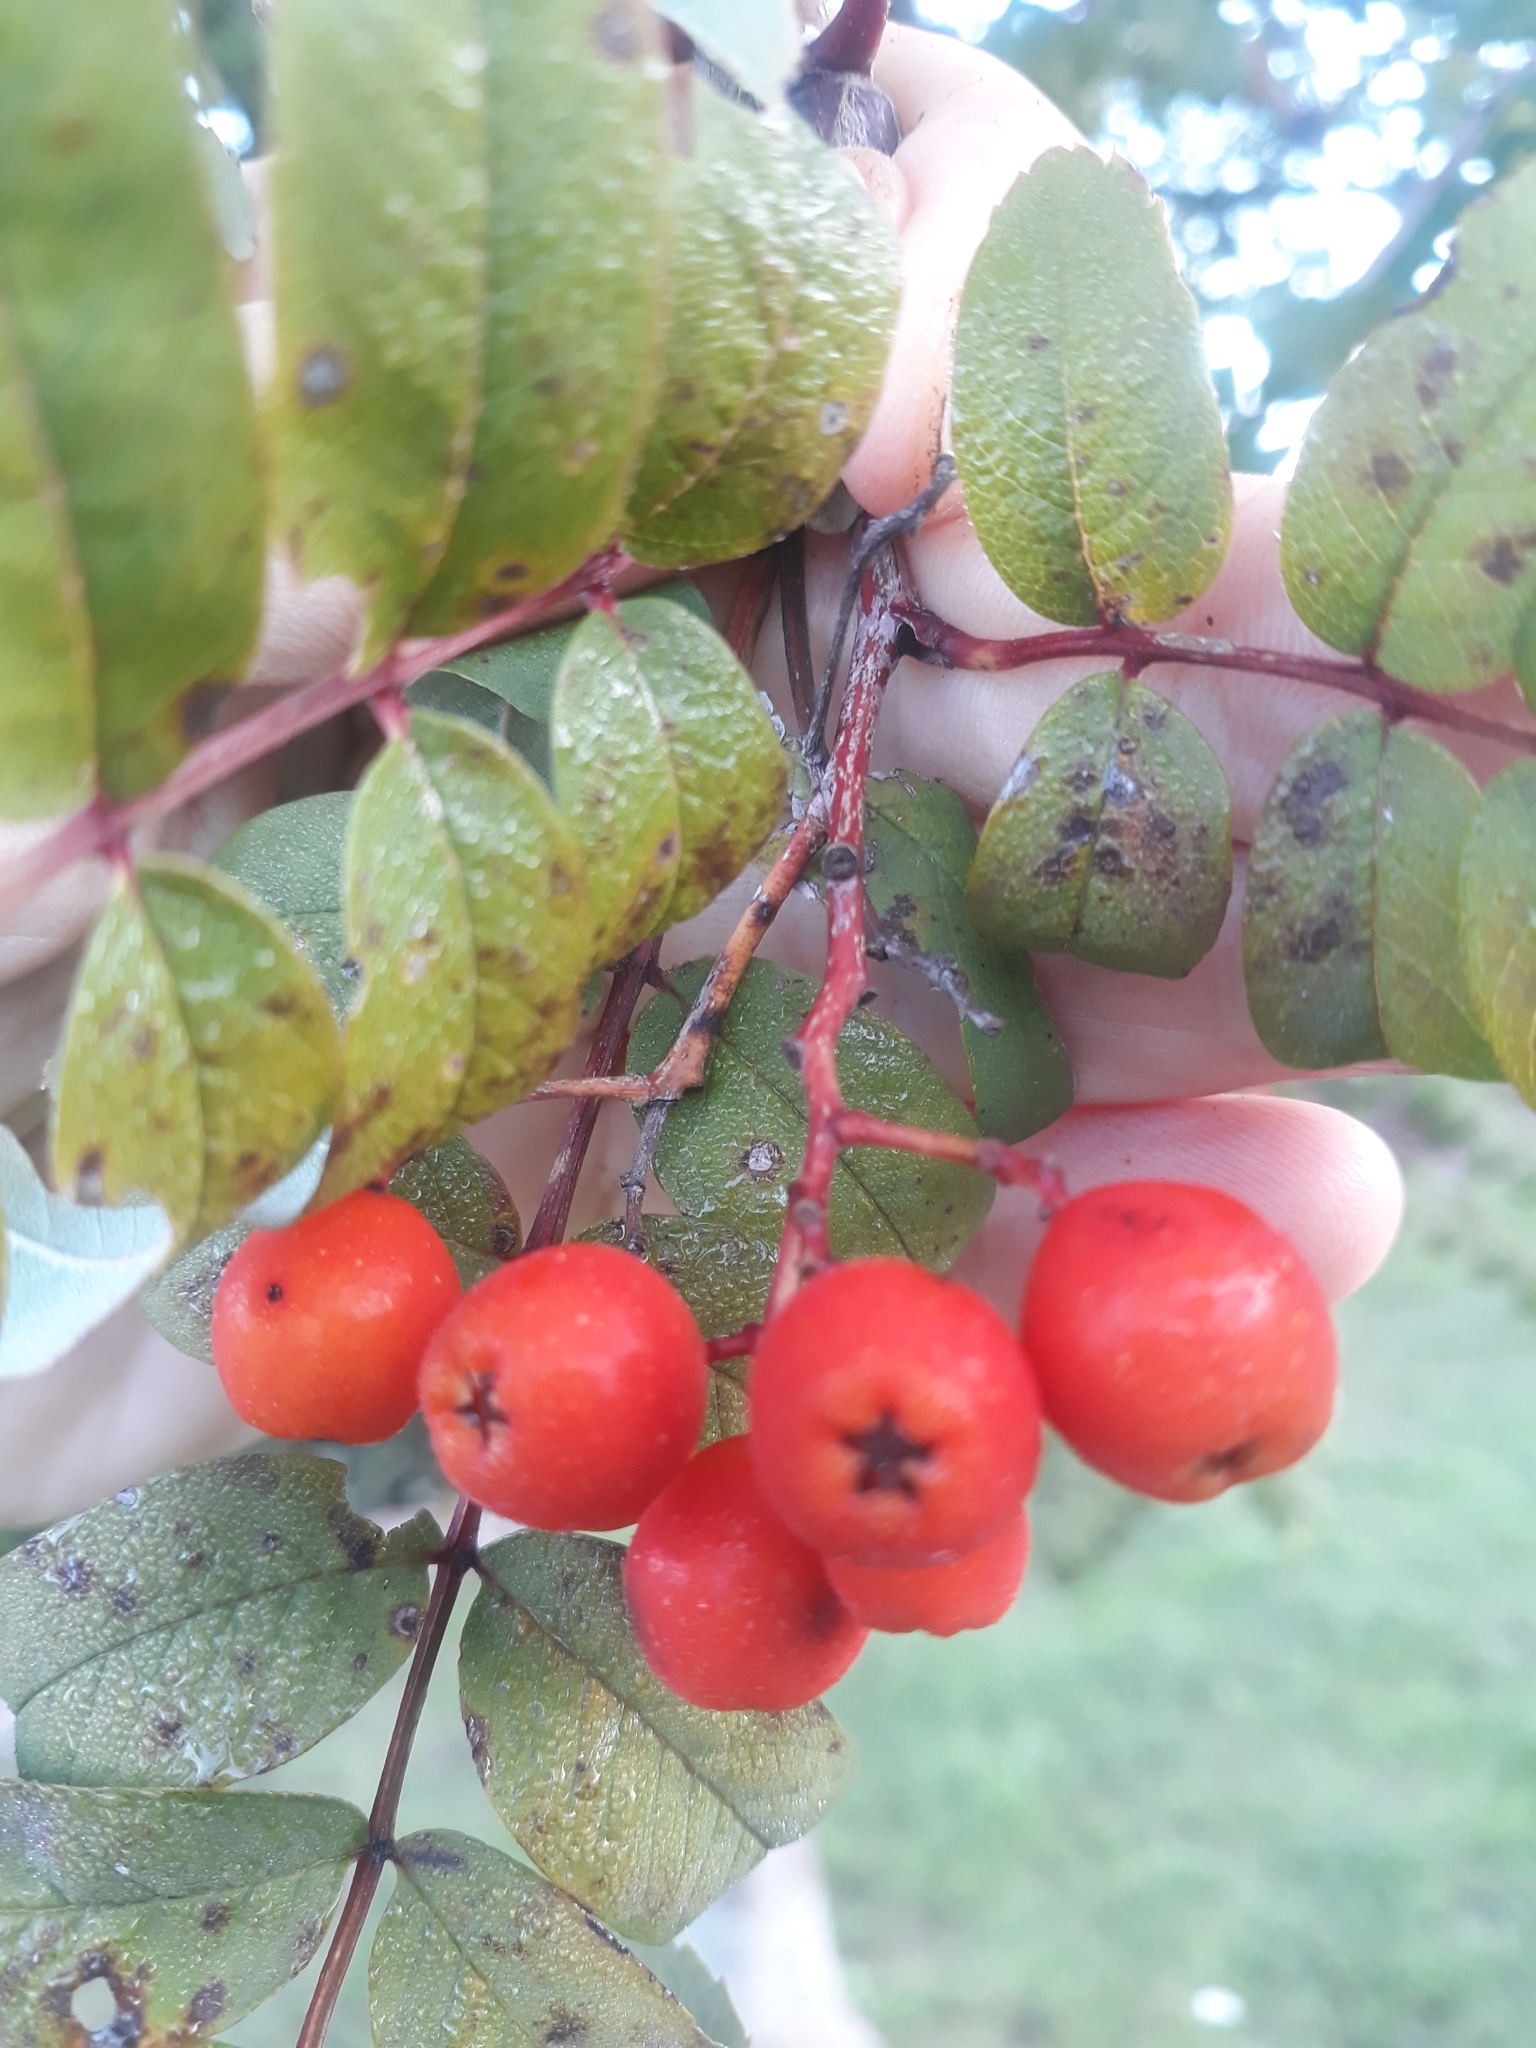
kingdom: Plantae
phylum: Tracheophyta
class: Magnoliopsida
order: Rosales
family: Rosaceae
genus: Sorbus
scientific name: Sorbus aucuparia
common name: Rowan
